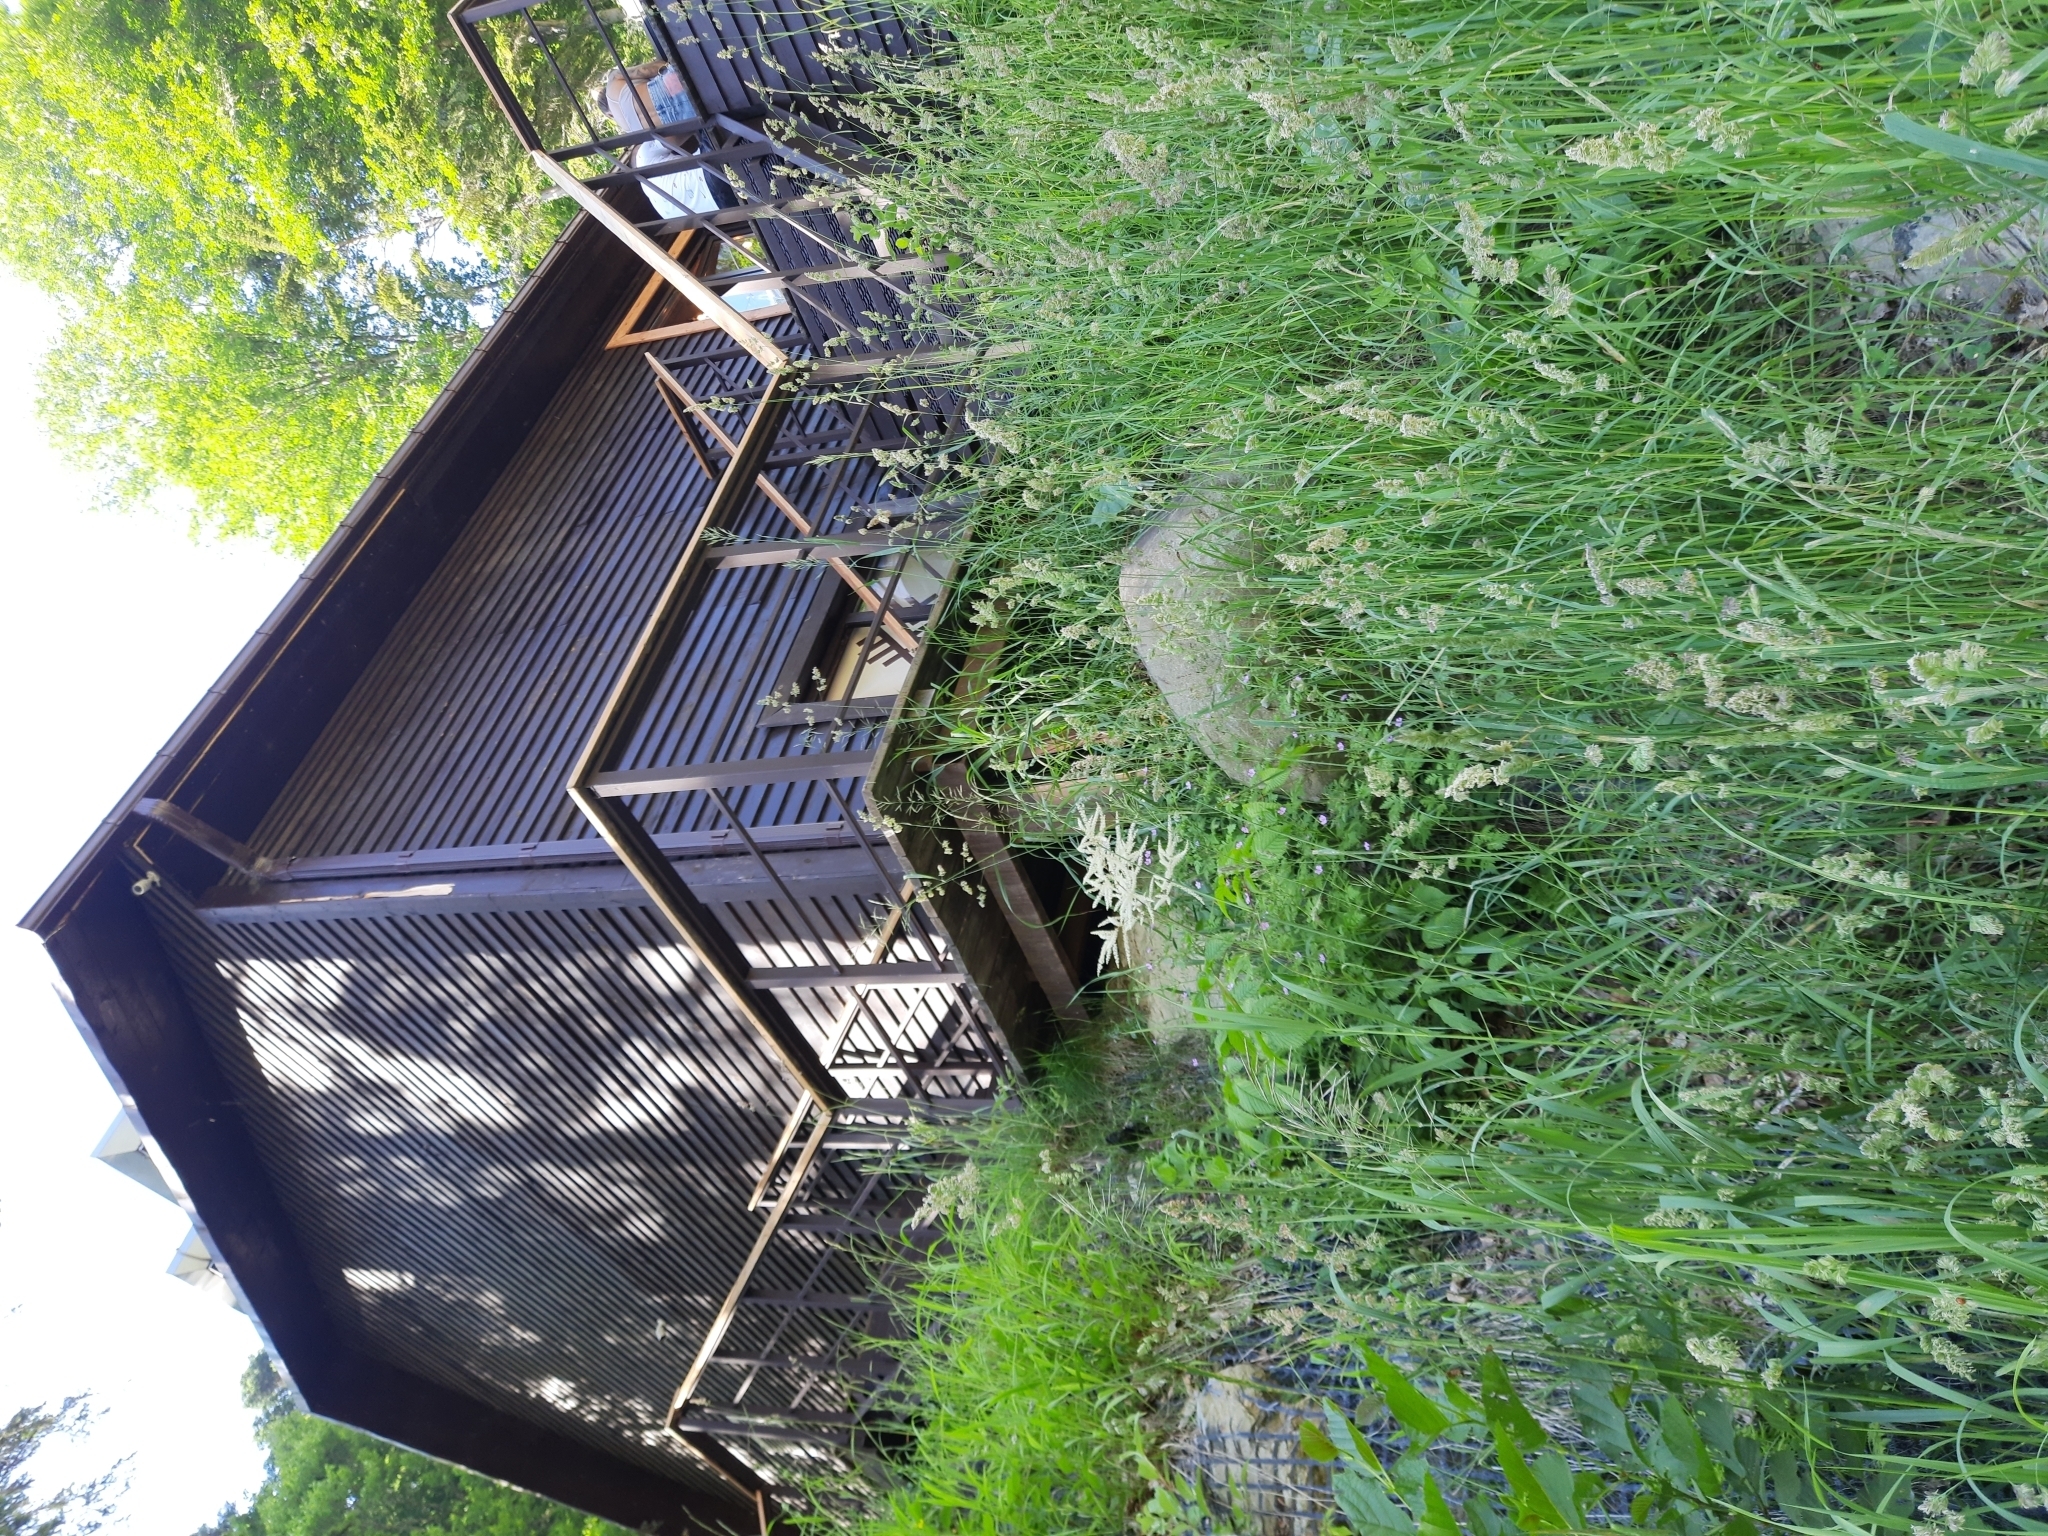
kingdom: Plantae
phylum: Tracheophyta
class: Liliopsida
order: Poales
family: Poaceae
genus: Dactylis
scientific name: Dactylis glomerata
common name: Orchardgrass
